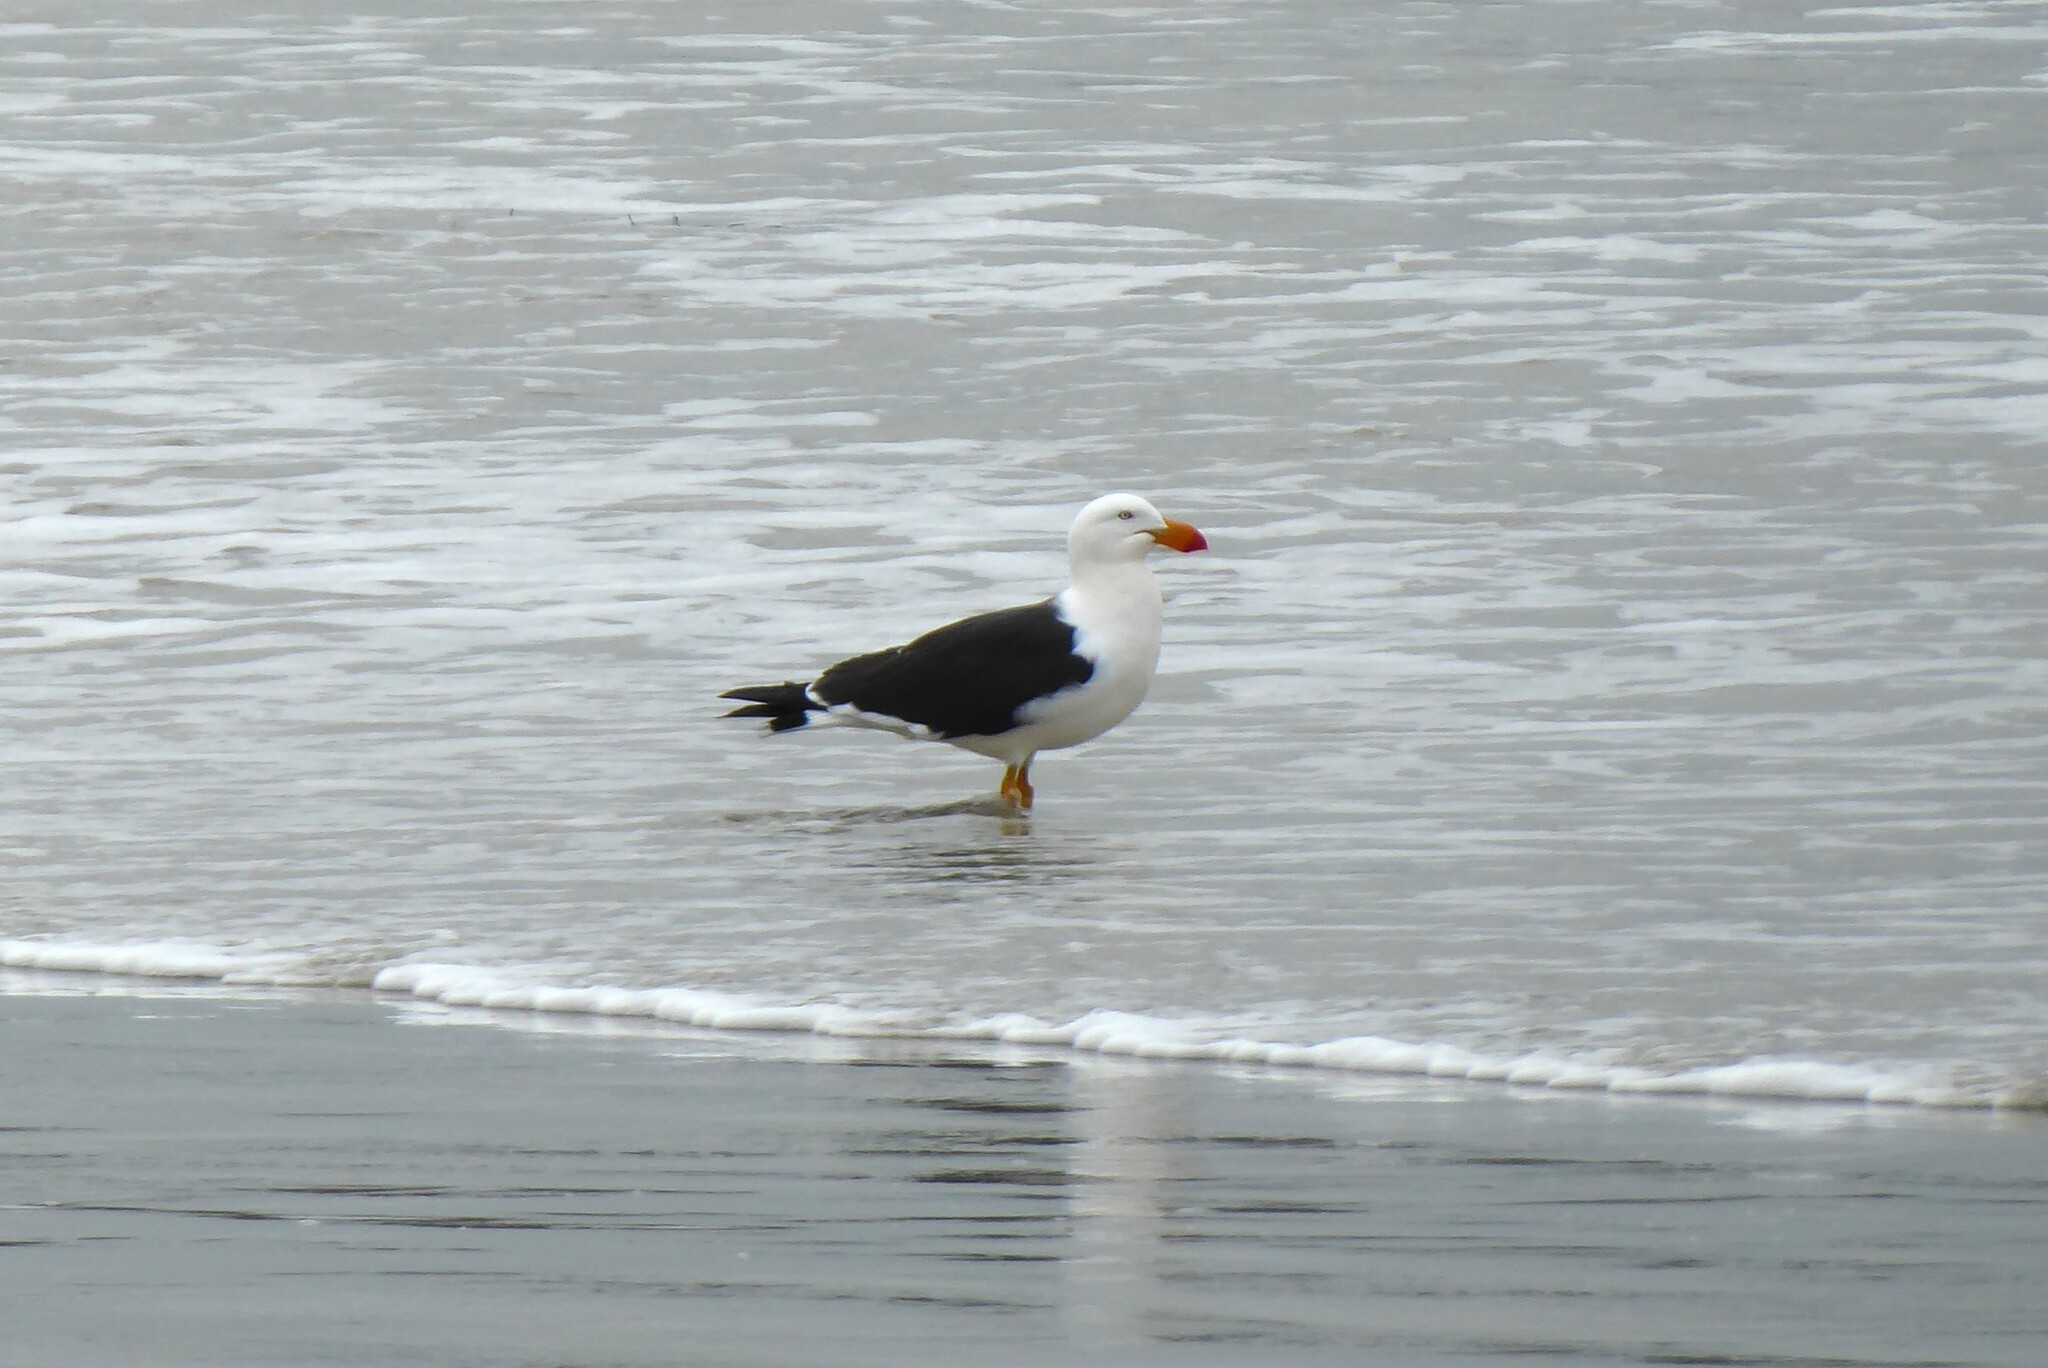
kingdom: Animalia
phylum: Chordata
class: Aves
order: Charadriiformes
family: Laridae
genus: Larus
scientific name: Larus pacificus
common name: Pacific gull
